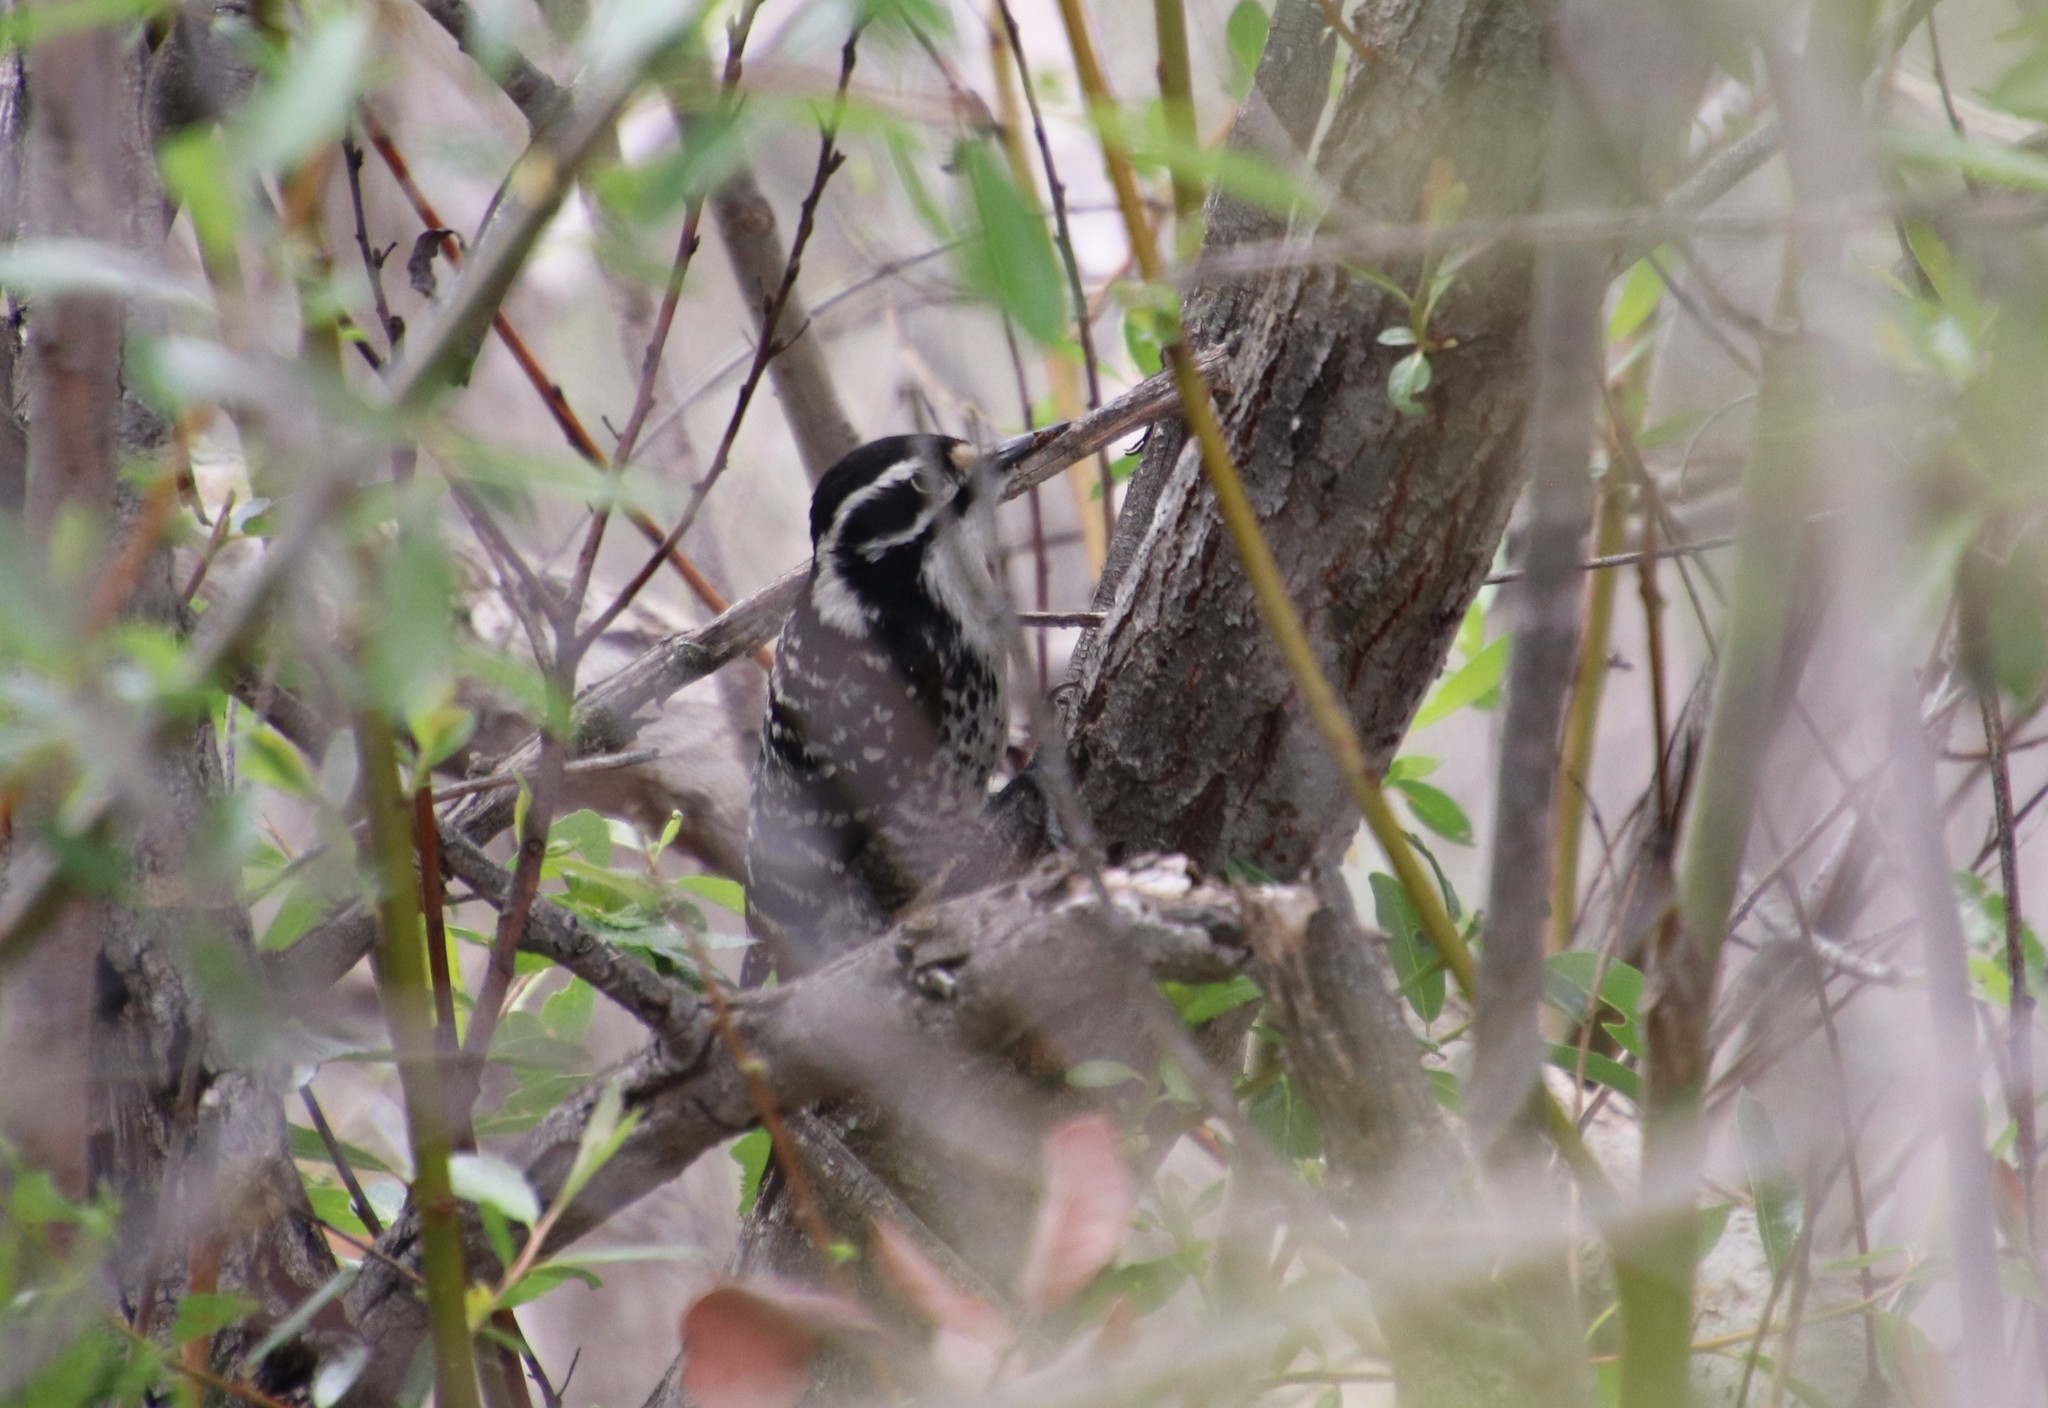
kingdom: Animalia
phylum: Chordata
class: Aves
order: Piciformes
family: Picidae
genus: Dryobates
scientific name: Dryobates nuttallii
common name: Nuttall's woodpecker
